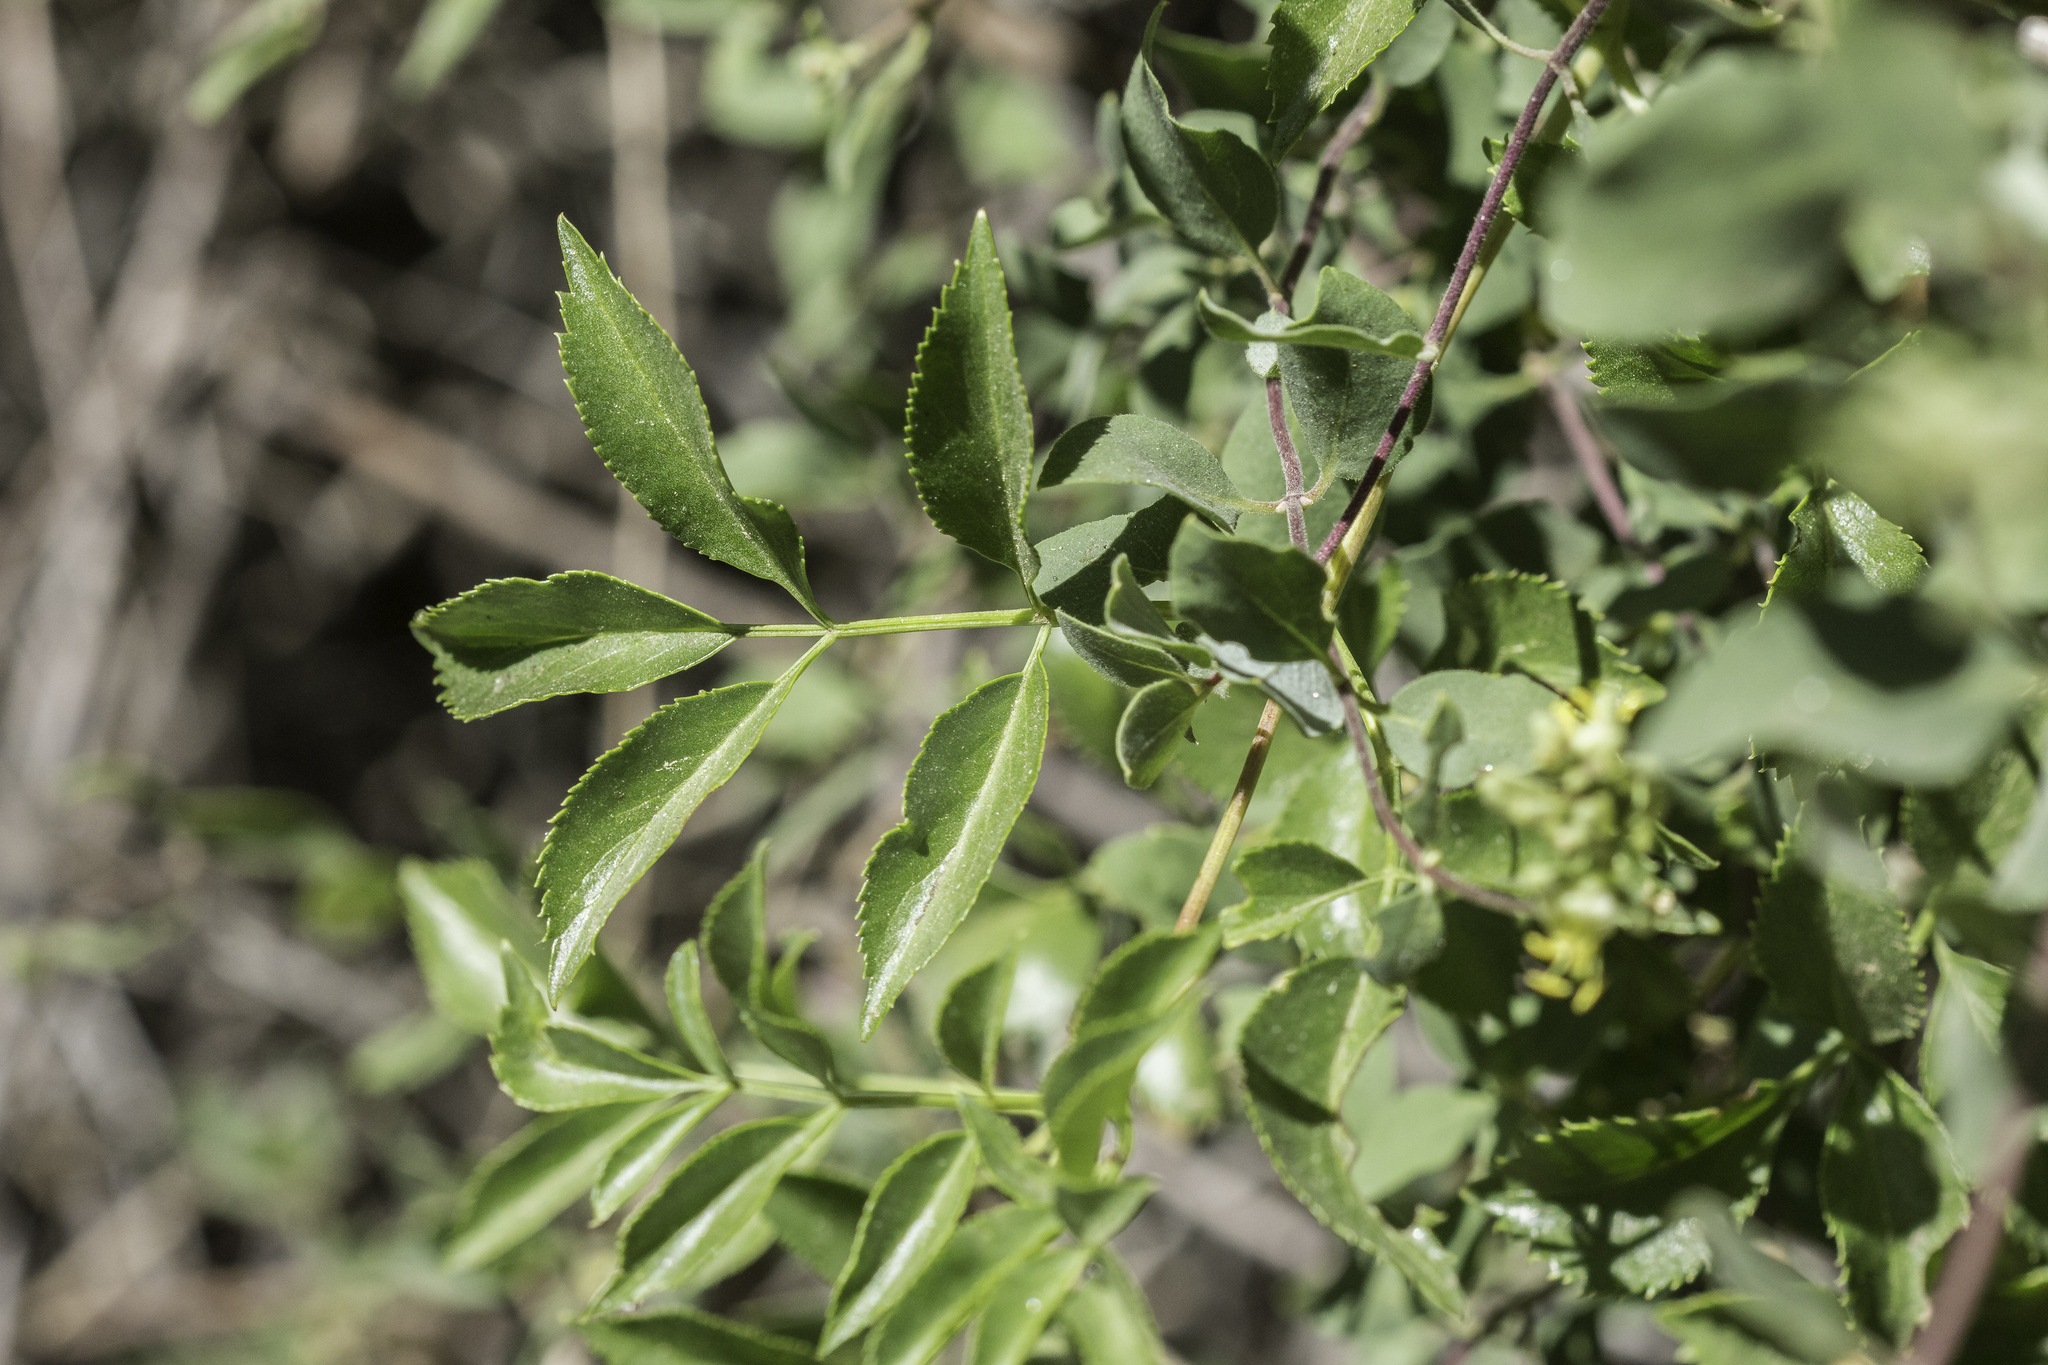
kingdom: Plantae
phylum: Tracheophyta
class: Magnoliopsida
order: Dipsacales
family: Viburnaceae
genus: Sambucus
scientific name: Sambucus cerulea
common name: Blue elder
